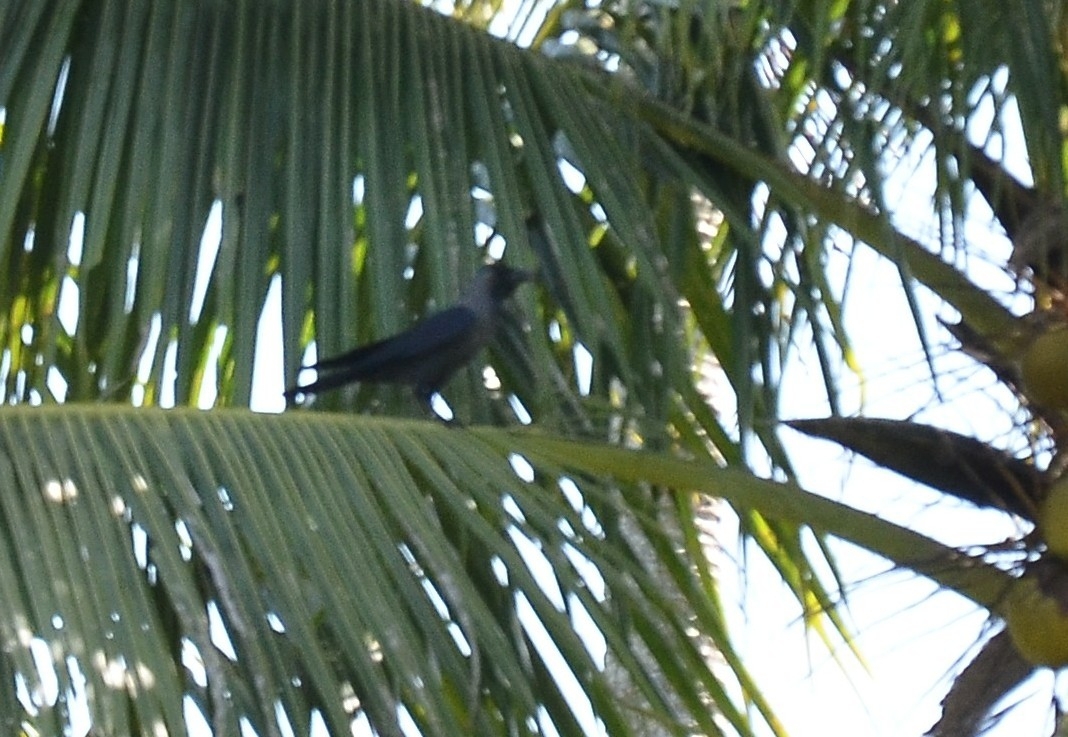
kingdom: Animalia
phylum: Chordata
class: Aves
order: Passeriformes
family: Corvidae
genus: Corvus
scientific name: Corvus splendens
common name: House crow
